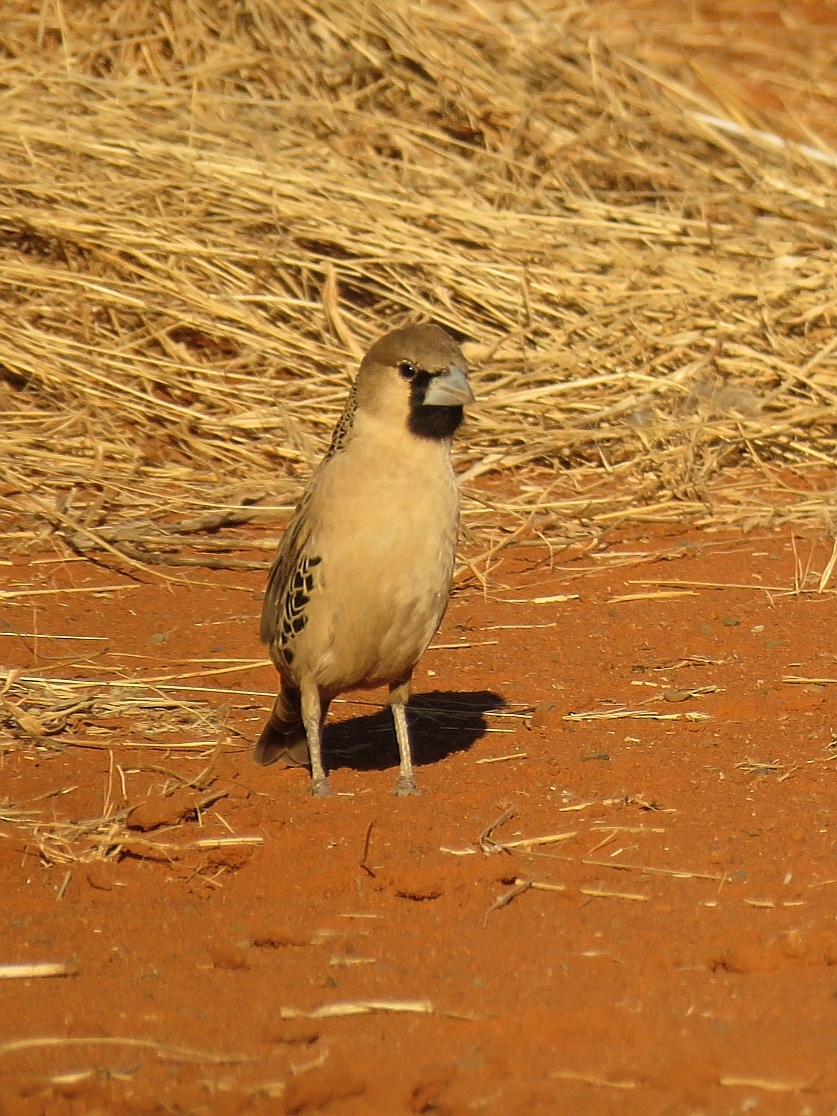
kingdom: Animalia
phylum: Chordata
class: Aves
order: Passeriformes
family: Passeridae
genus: Philetairus
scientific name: Philetairus socius
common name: Sociable weaver
